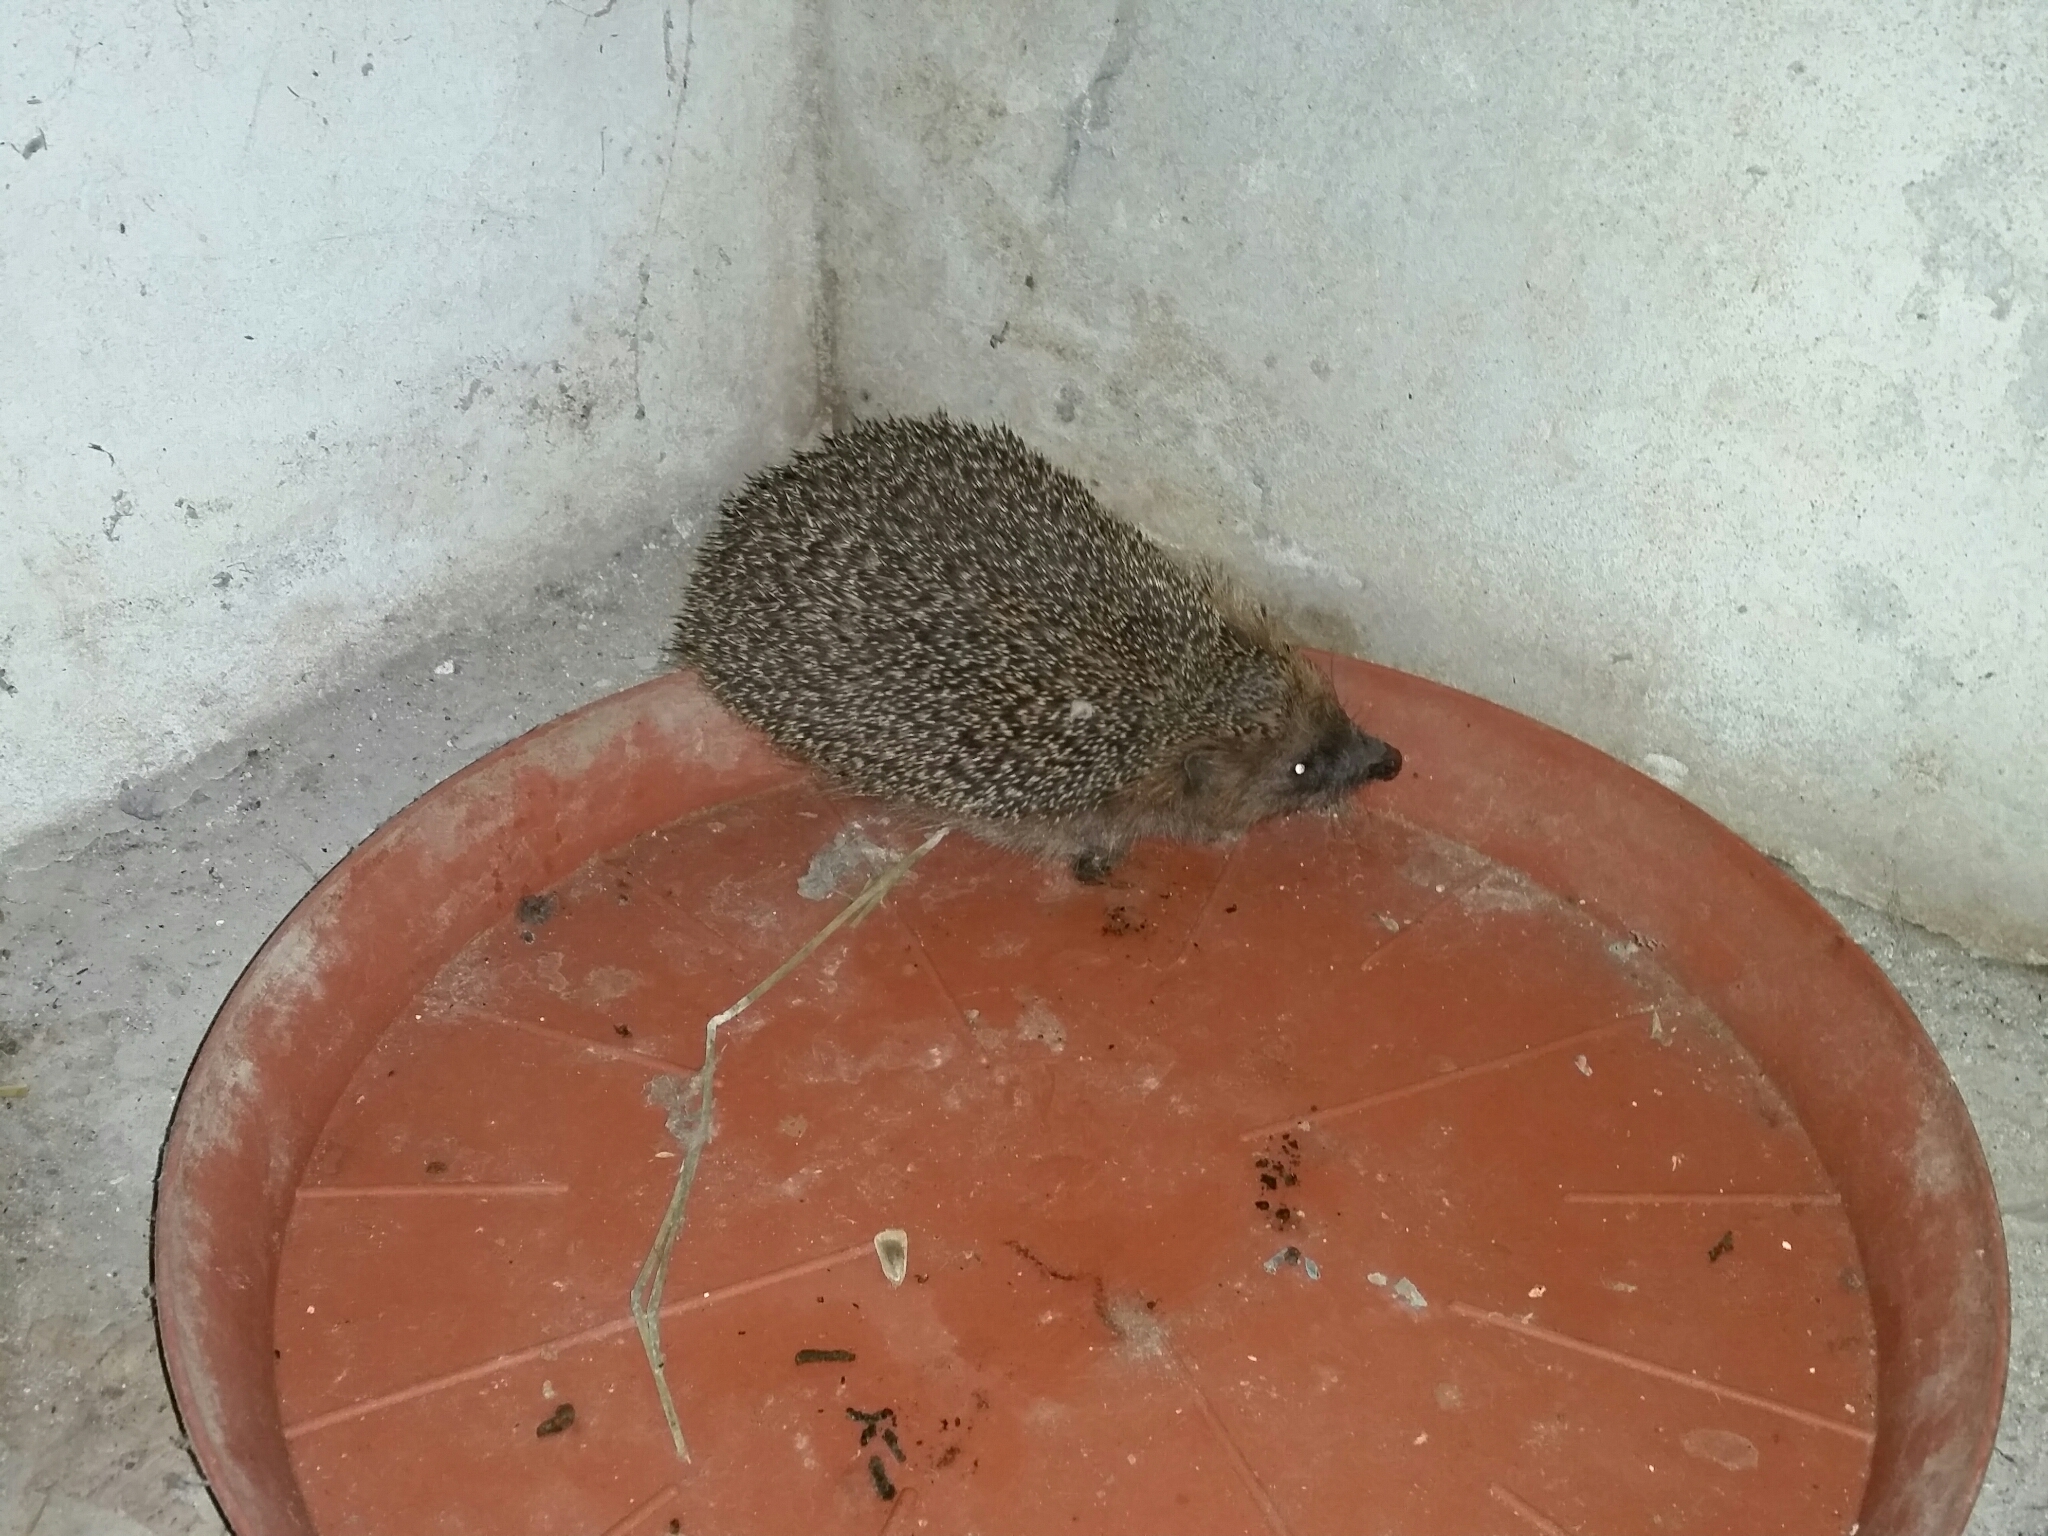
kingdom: Animalia
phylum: Chordata
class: Mammalia
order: Erinaceomorpha
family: Erinaceidae
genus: Erinaceus
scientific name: Erinaceus europaeus
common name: West european hedgehog
